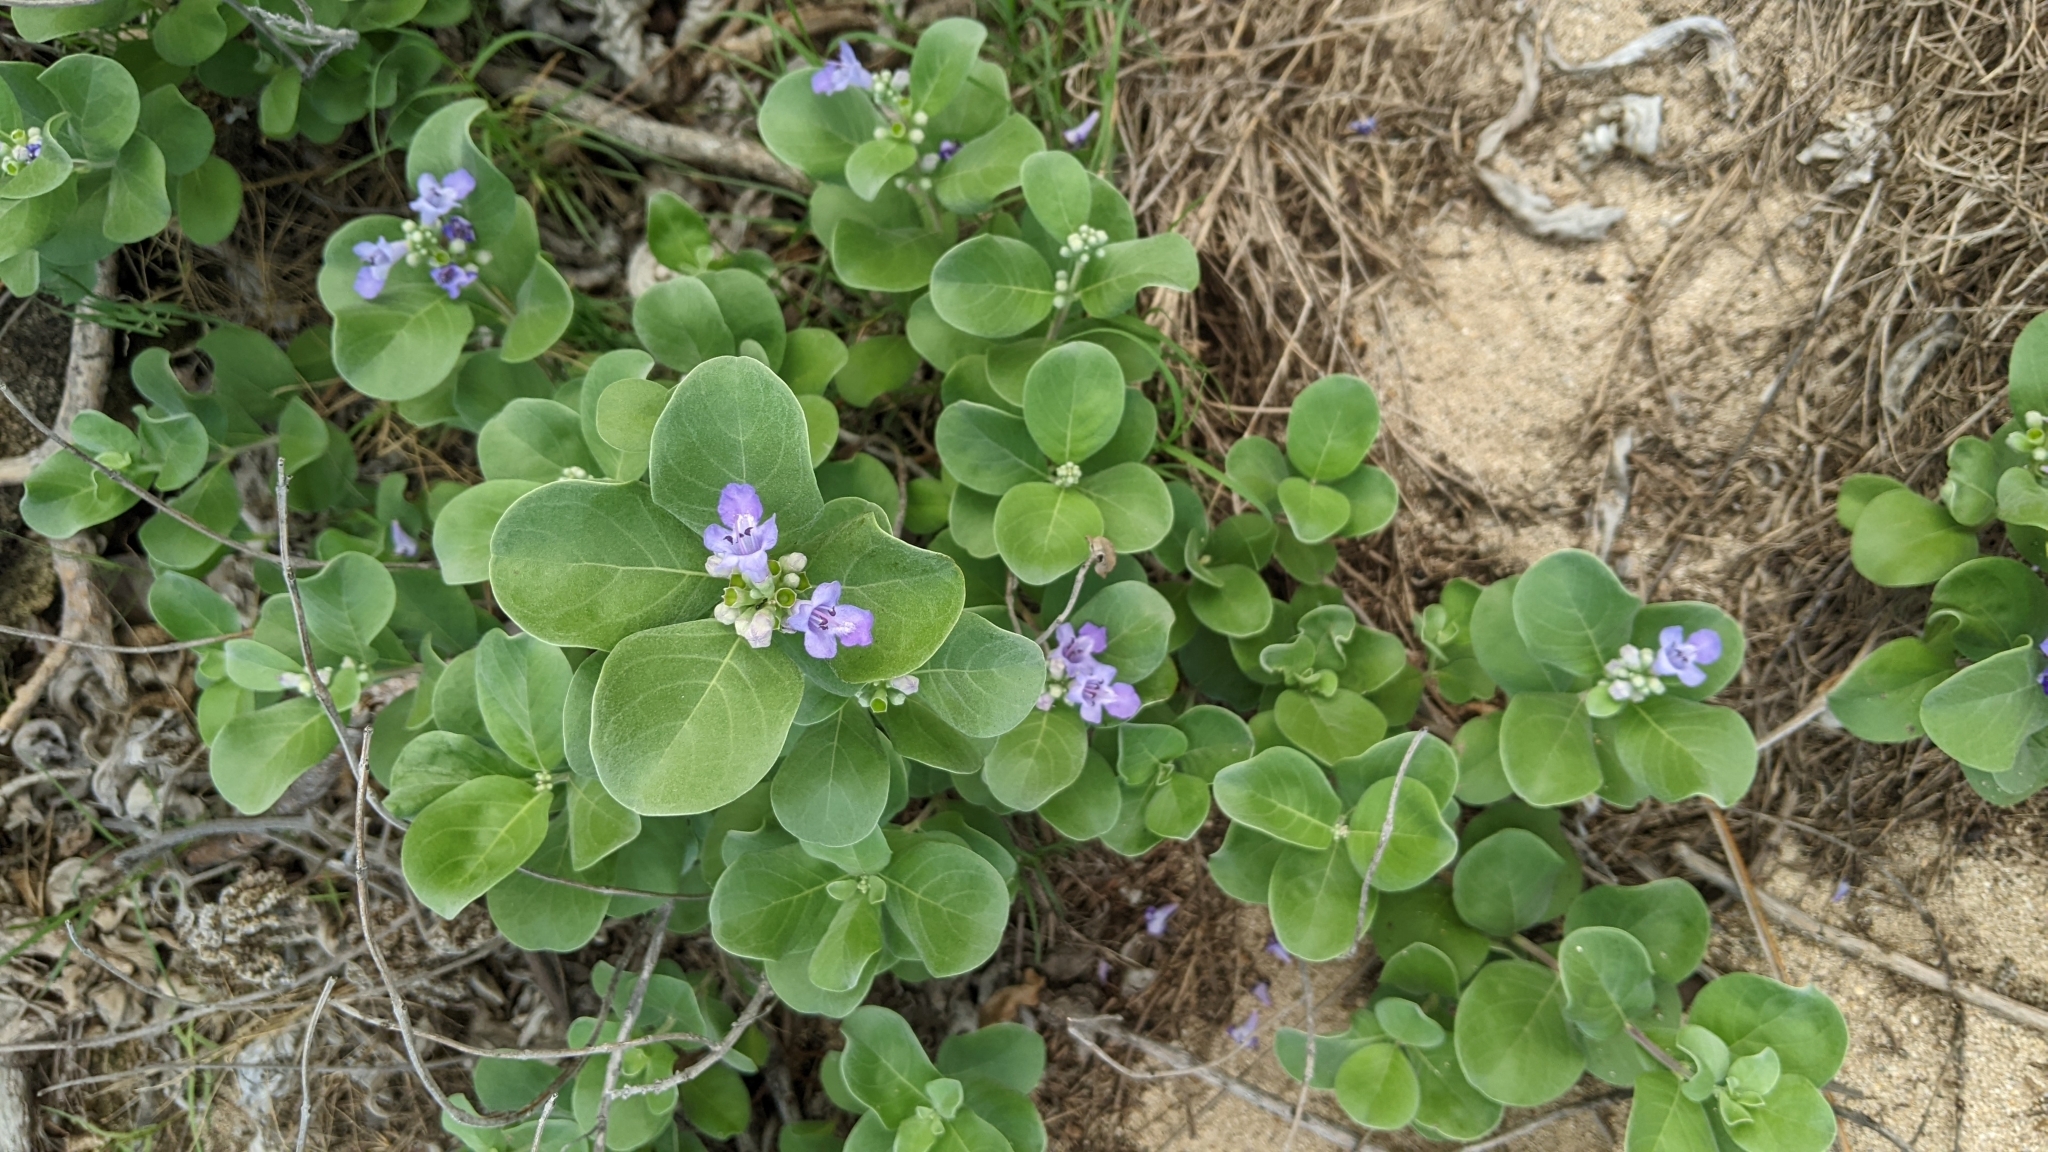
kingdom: Plantae
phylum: Tracheophyta
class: Magnoliopsida
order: Lamiales
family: Lamiaceae
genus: Vitex
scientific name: Vitex rotundifolia
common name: Beach vitex
